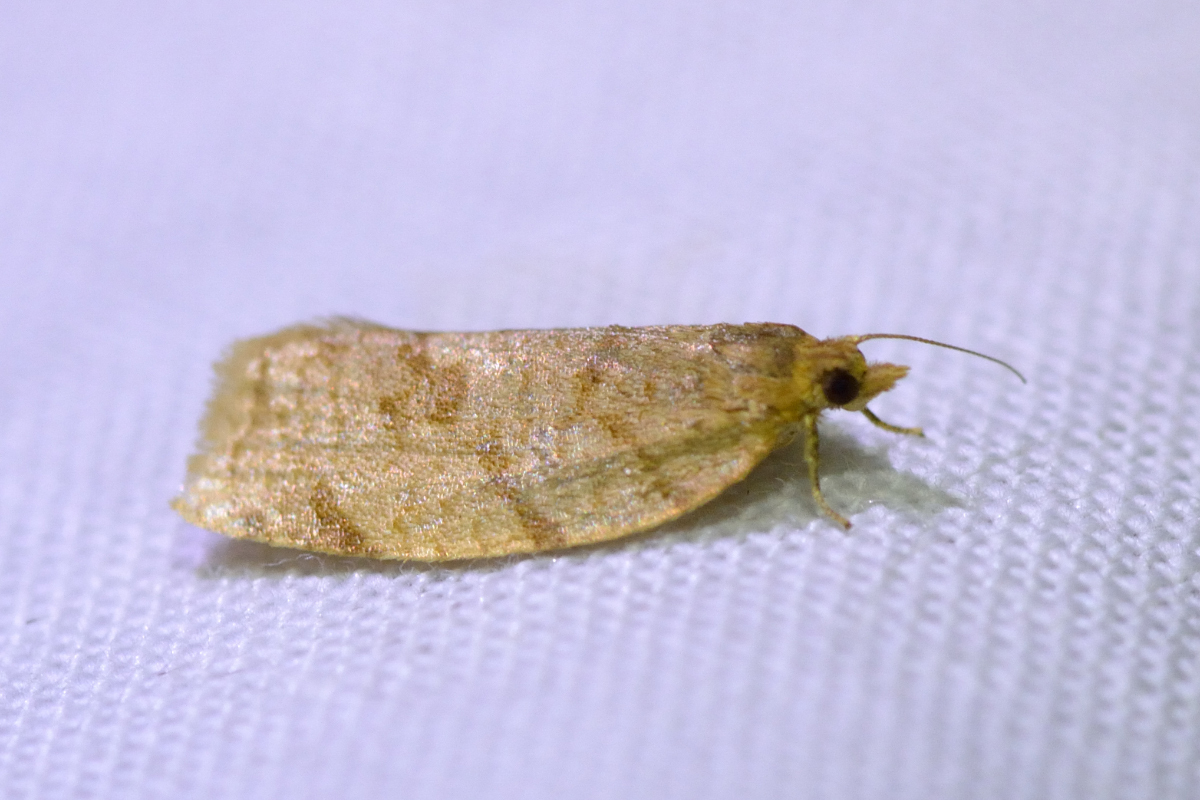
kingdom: Animalia
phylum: Arthropoda
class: Insecta
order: Lepidoptera
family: Tortricidae
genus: Adoxophyes
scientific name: Adoxophyes orana
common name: Summer fruit tortrix
